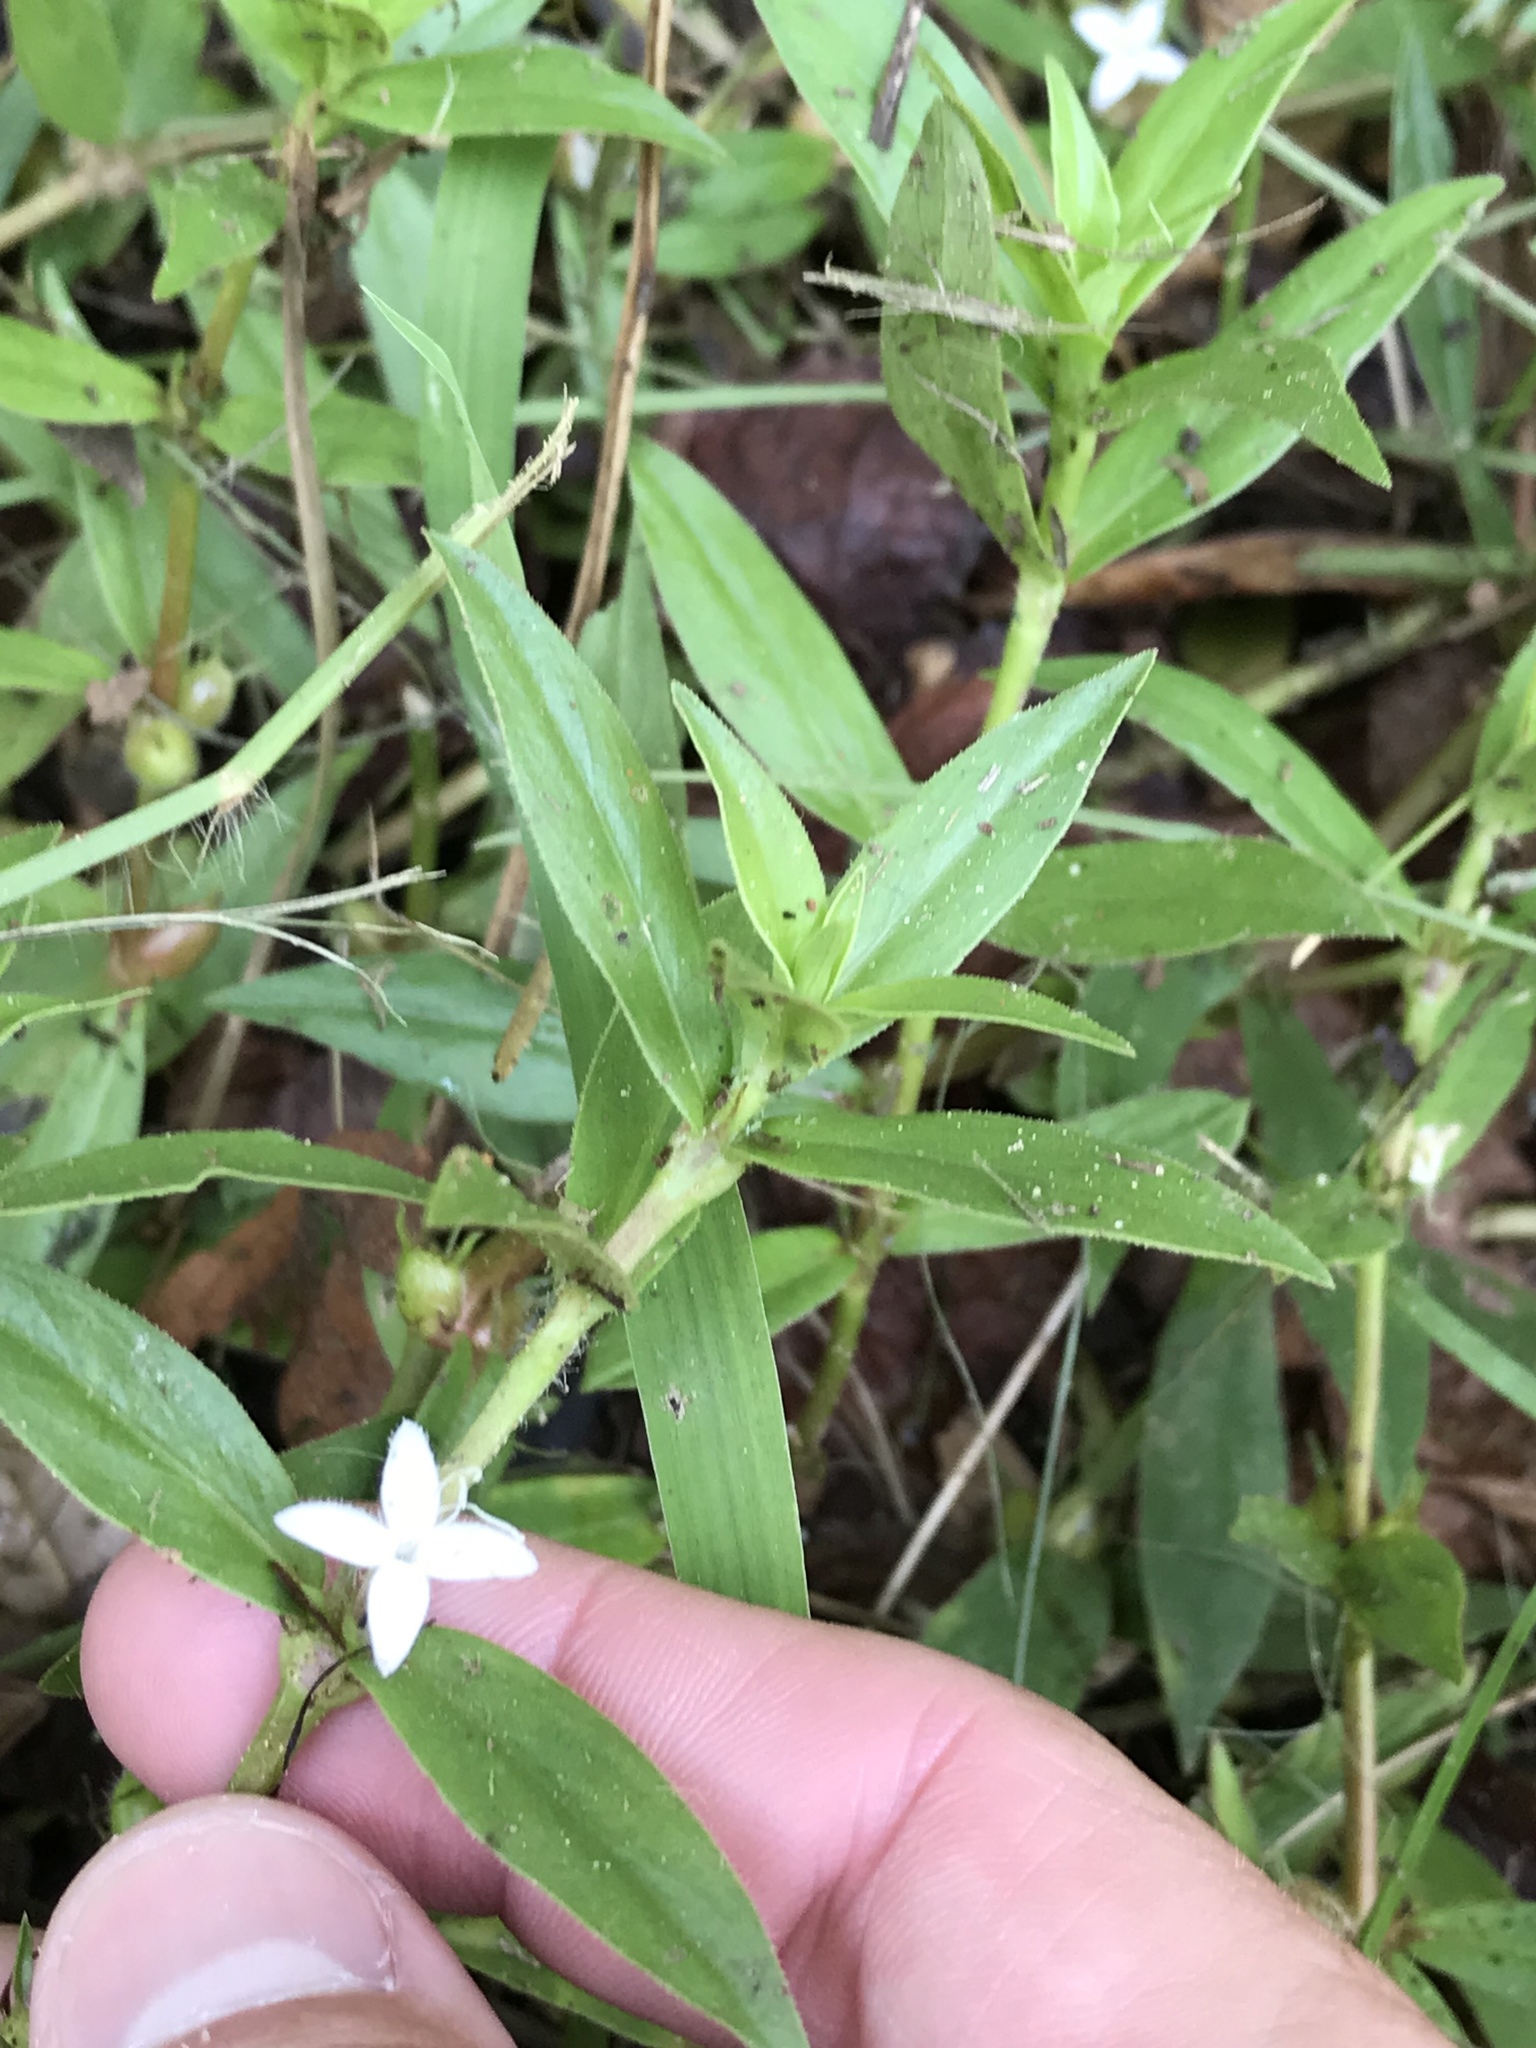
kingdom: Plantae
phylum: Tracheophyta
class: Magnoliopsida
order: Gentianales
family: Rubiaceae
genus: Diodia
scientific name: Diodia virginiana
